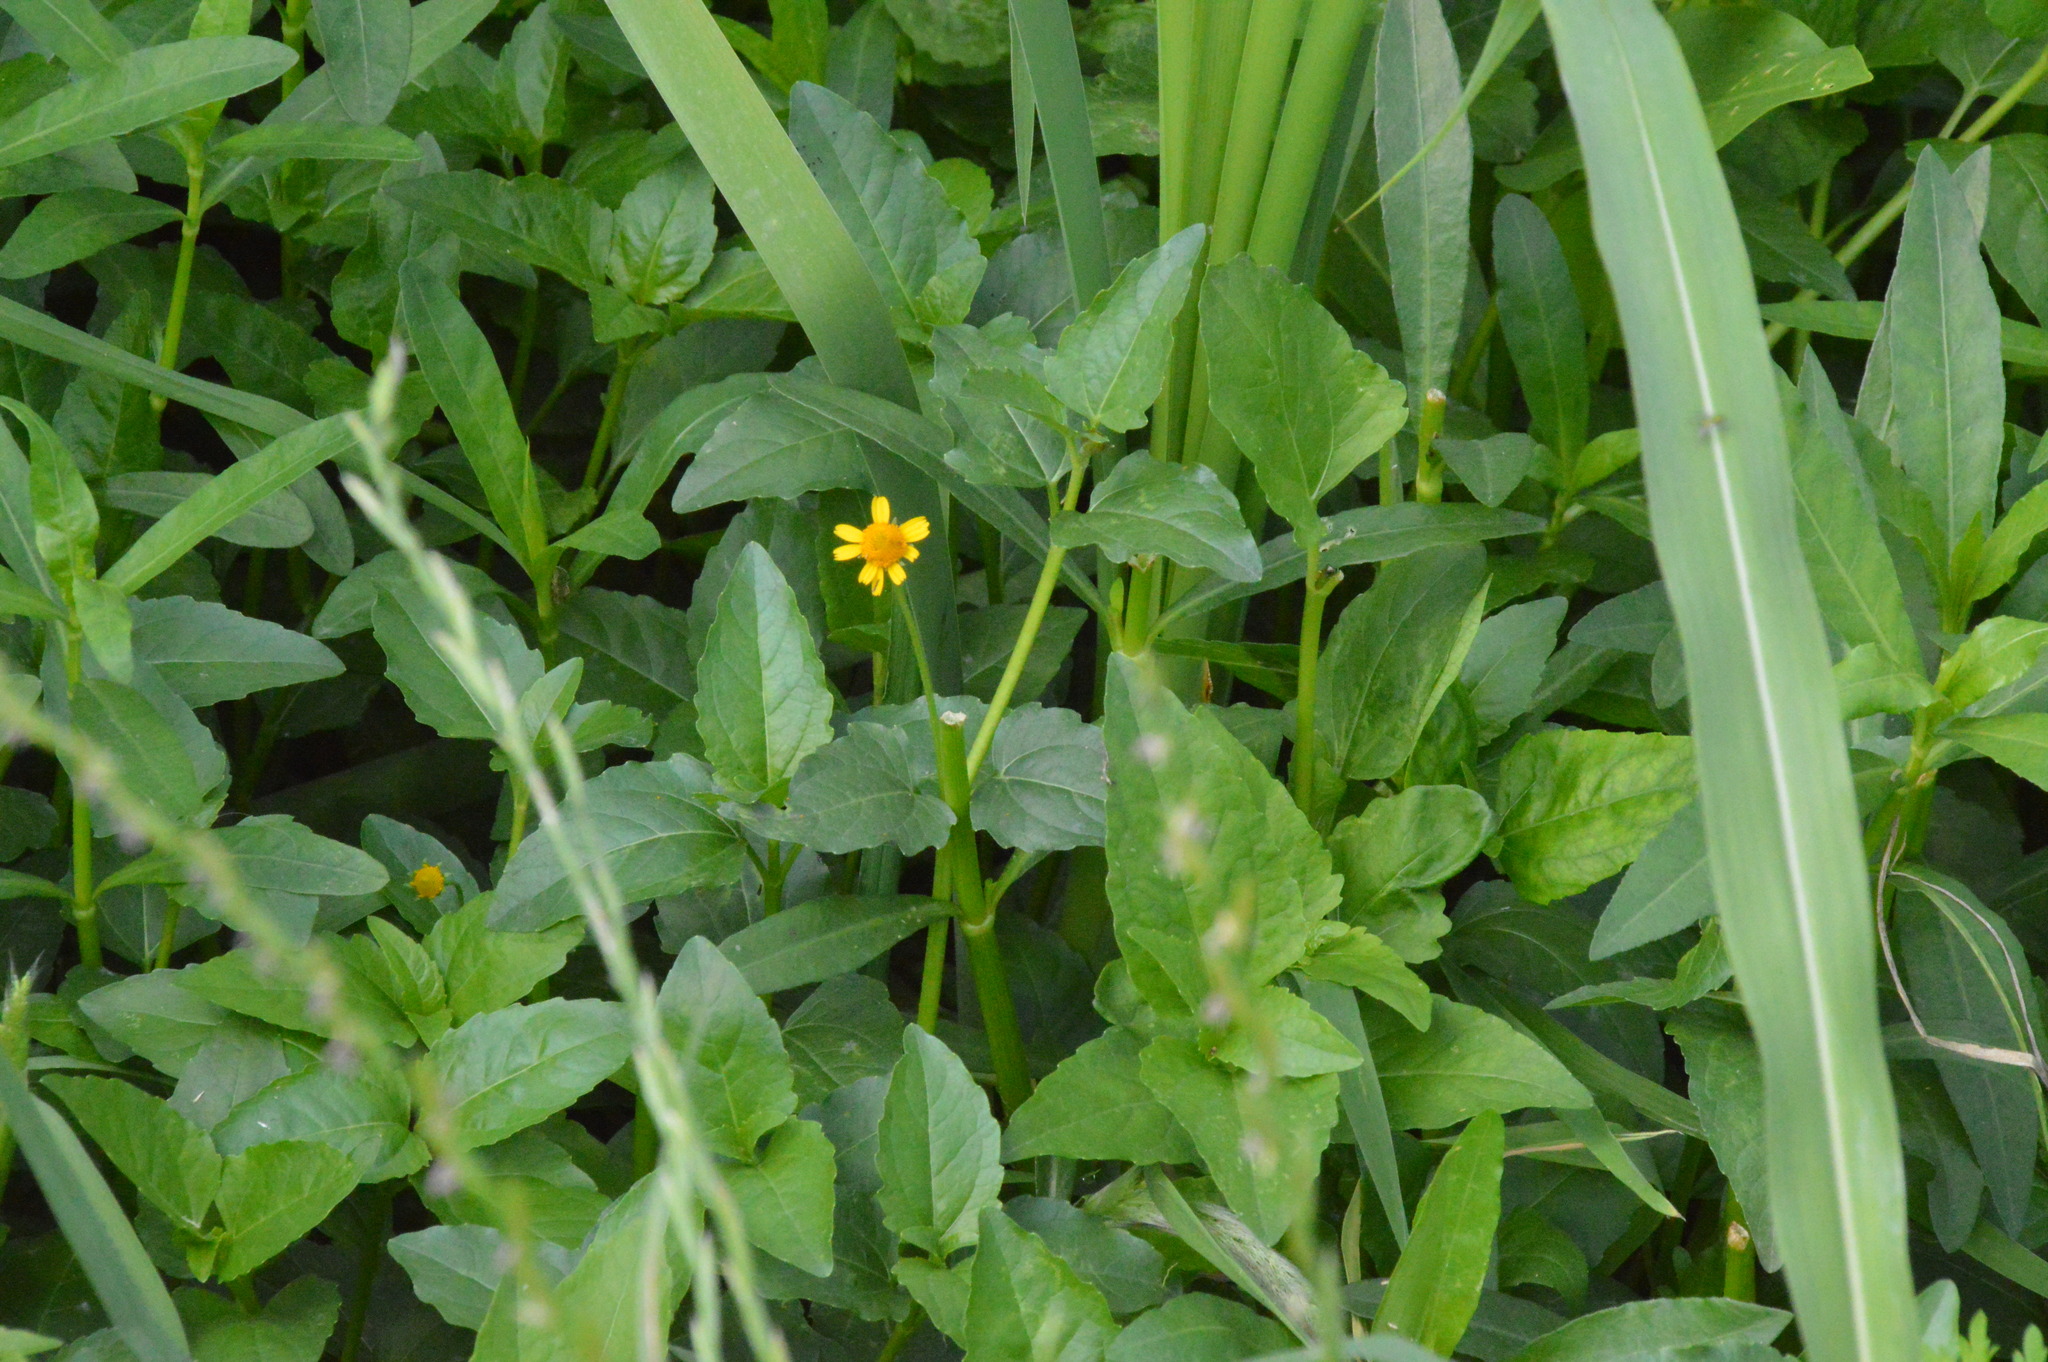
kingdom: Plantae
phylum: Tracheophyta
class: Magnoliopsida
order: Asterales
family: Asteraceae
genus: Acmella
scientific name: Acmella repens
